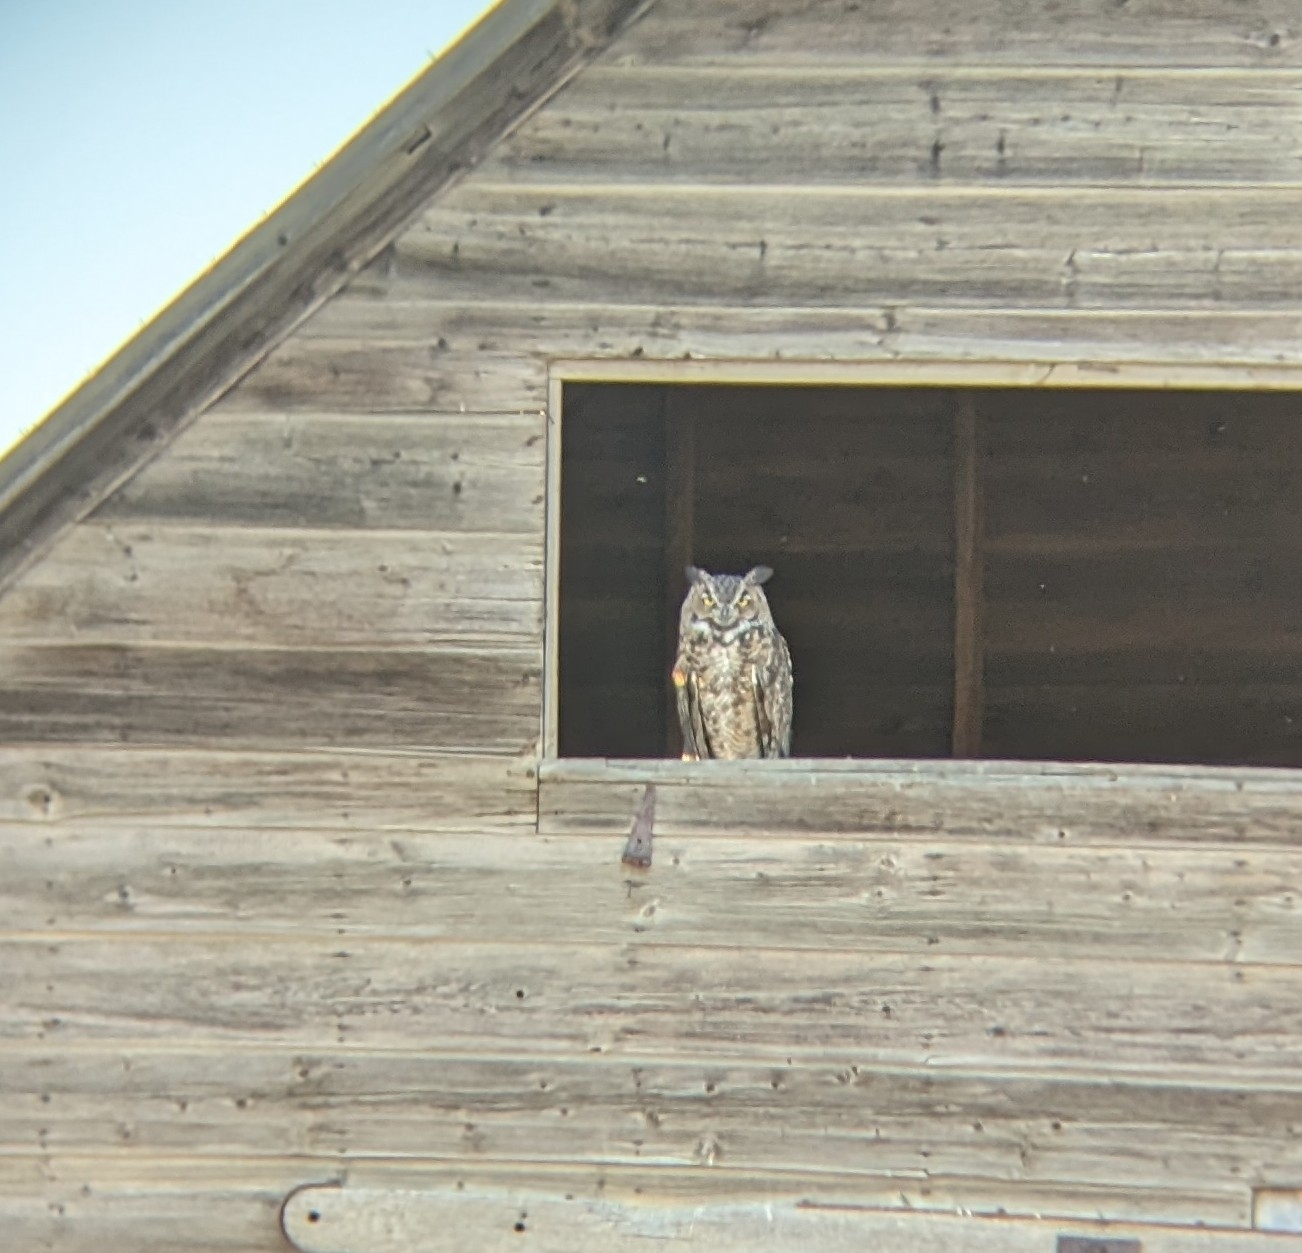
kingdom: Animalia
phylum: Chordata
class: Aves
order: Strigiformes
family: Strigidae
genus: Bubo
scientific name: Bubo virginianus
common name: Great horned owl
